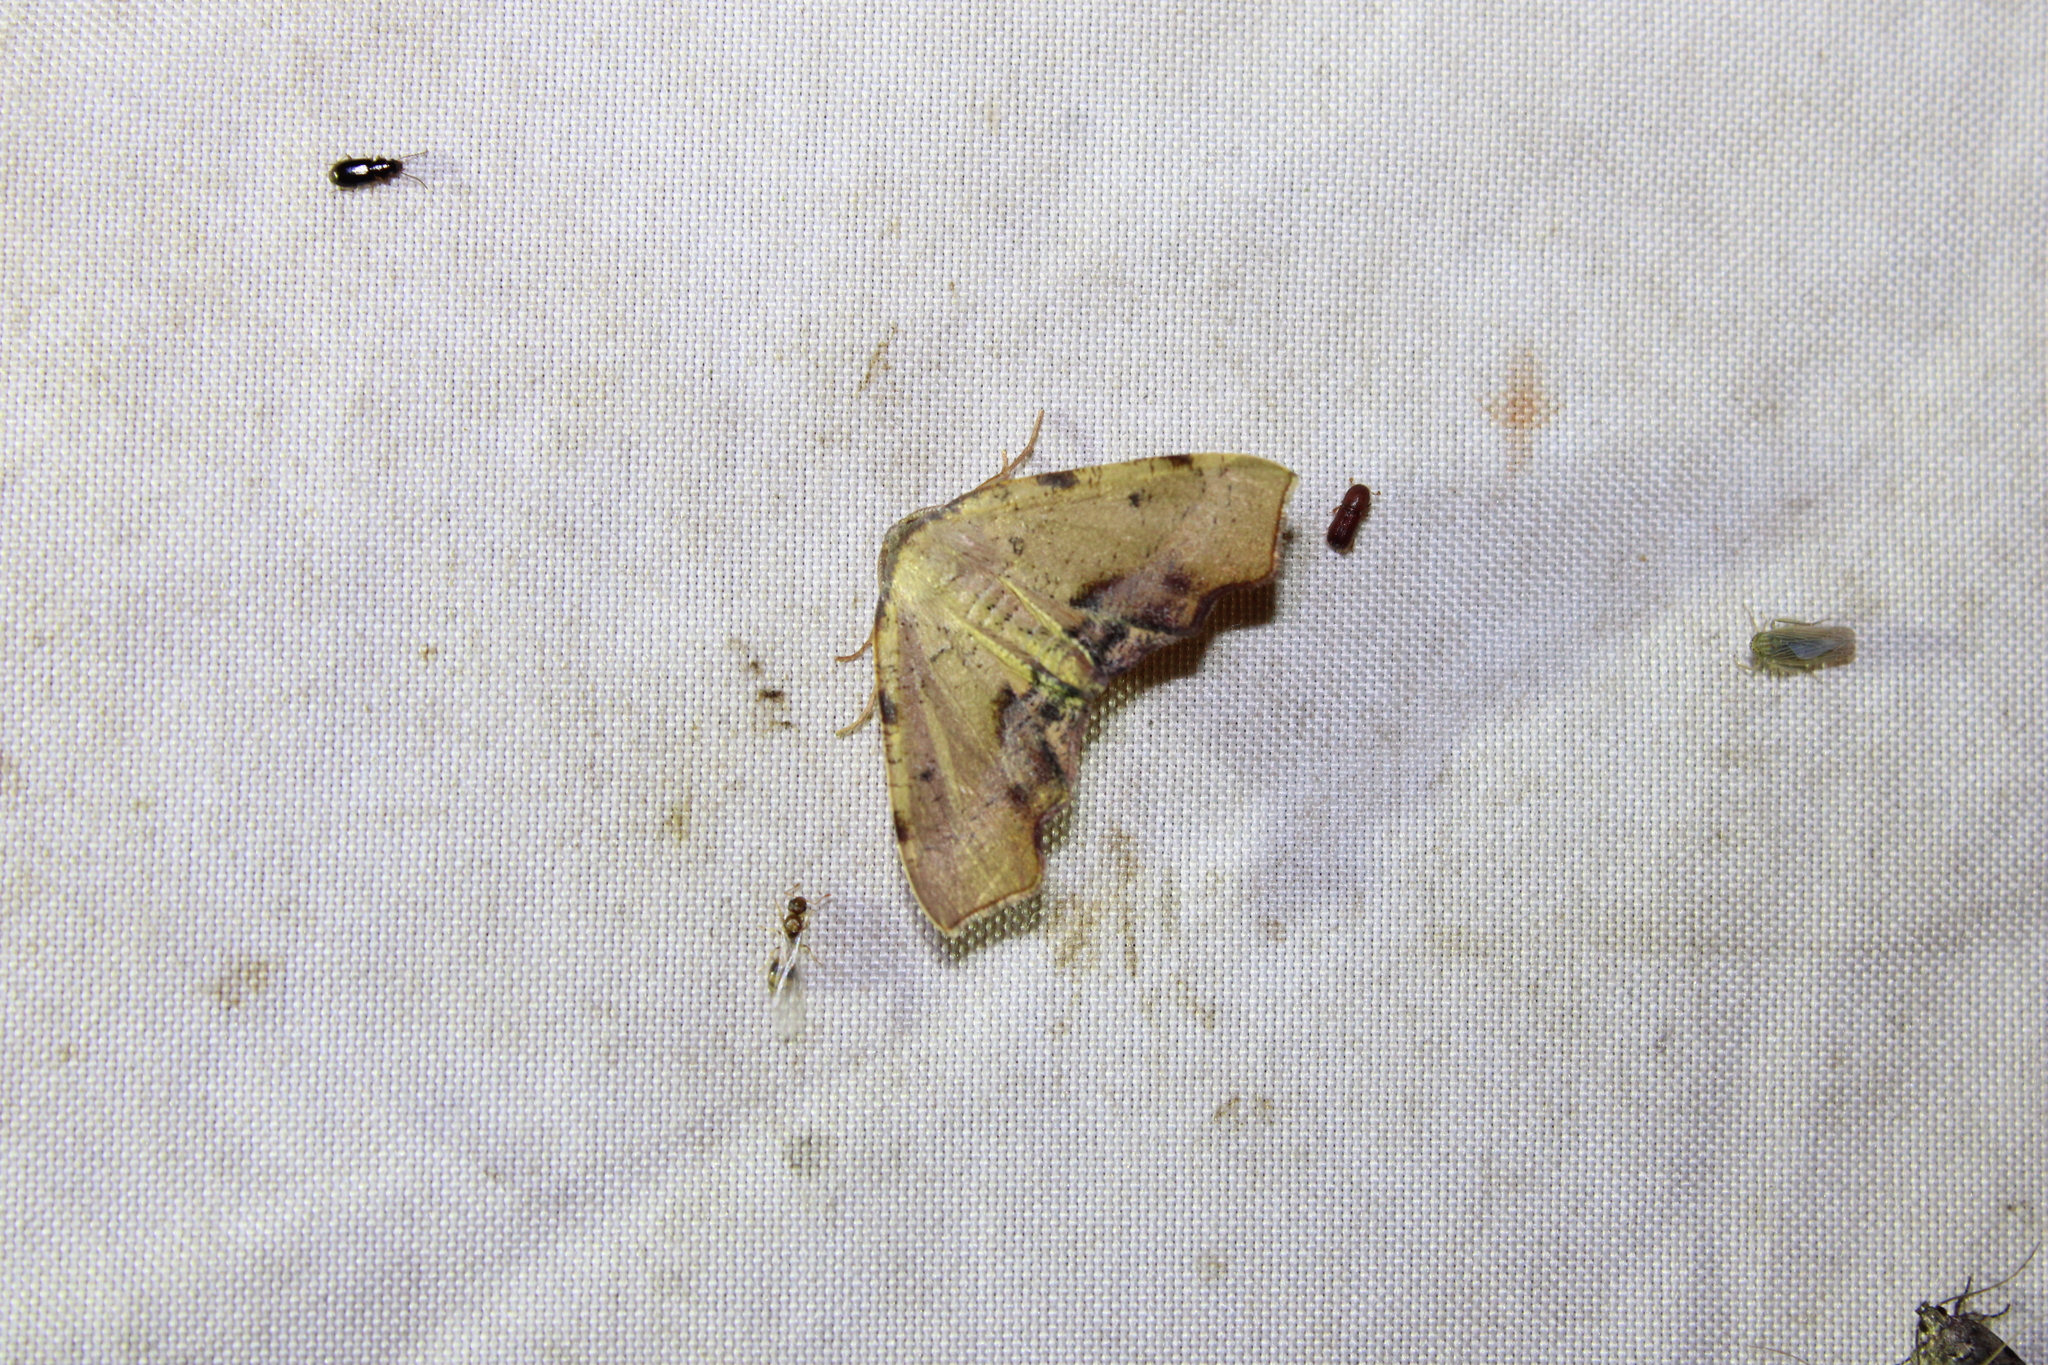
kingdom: Animalia
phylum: Arthropoda
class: Insecta
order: Lepidoptera
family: Geometridae
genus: Plagodis
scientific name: Plagodis fervidaria
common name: Fervid plagodis
